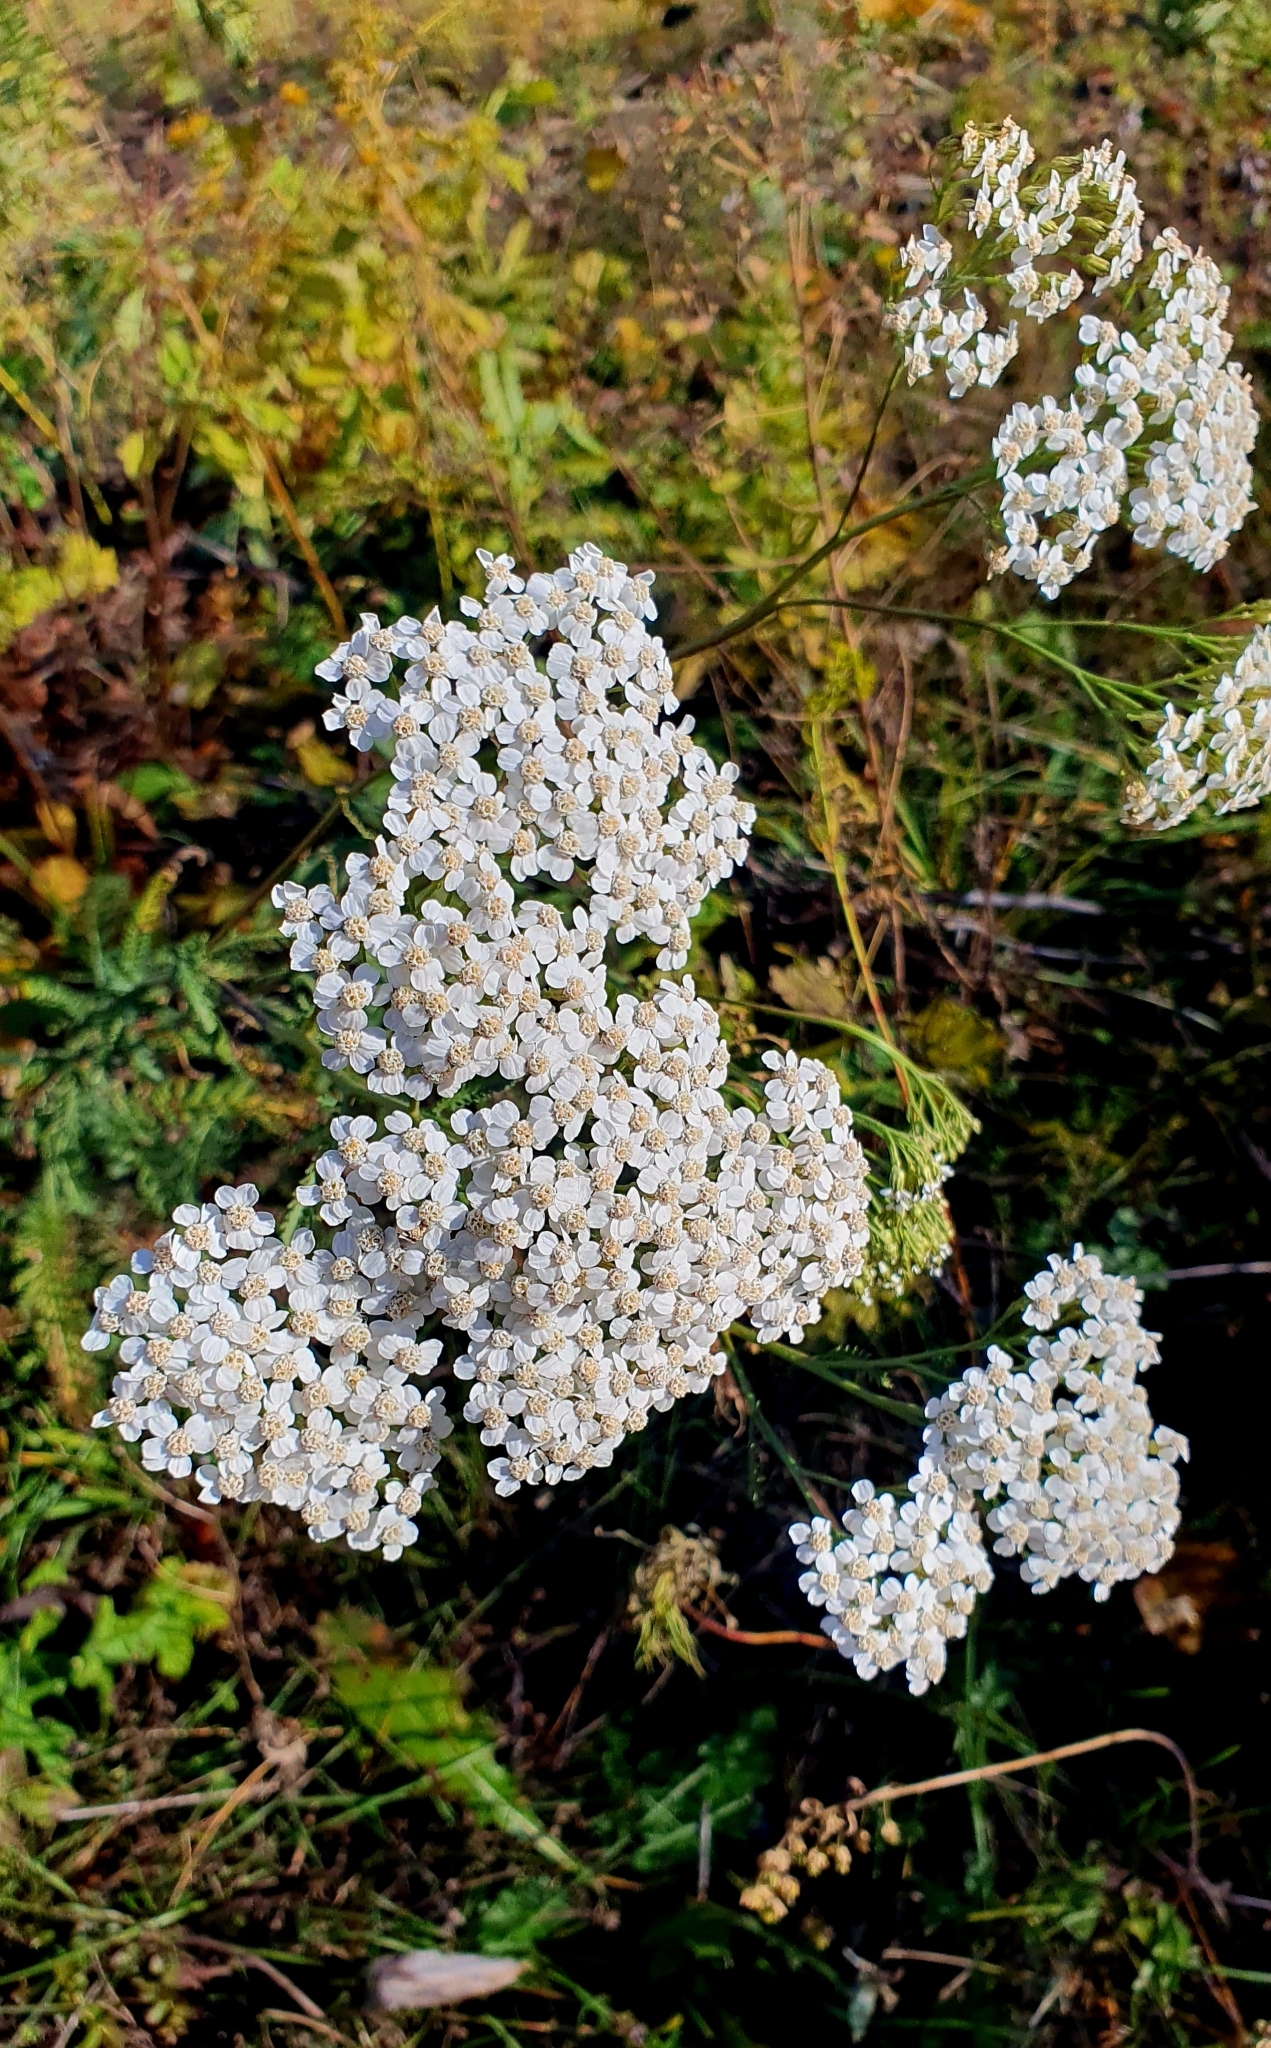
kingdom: Plantae
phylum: Tracheophyta
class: Magnoliopsida
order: Asterales
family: Asteraceae
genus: Achillea
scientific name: Achillea millefolium
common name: Yarrow
